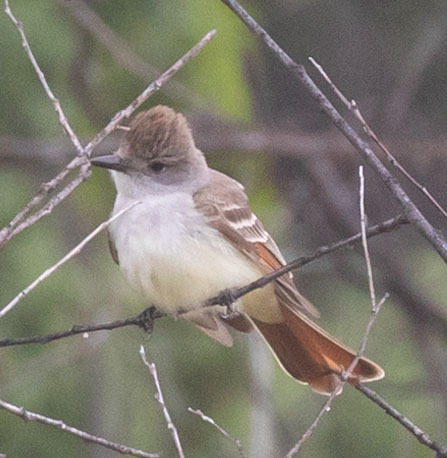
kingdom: Animalia
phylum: Chordata
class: Aves
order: Passeriformes
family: Tyrannidae
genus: Myiarchus
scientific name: Myiarchus cinerascens
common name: Ash-throated flycatcher
